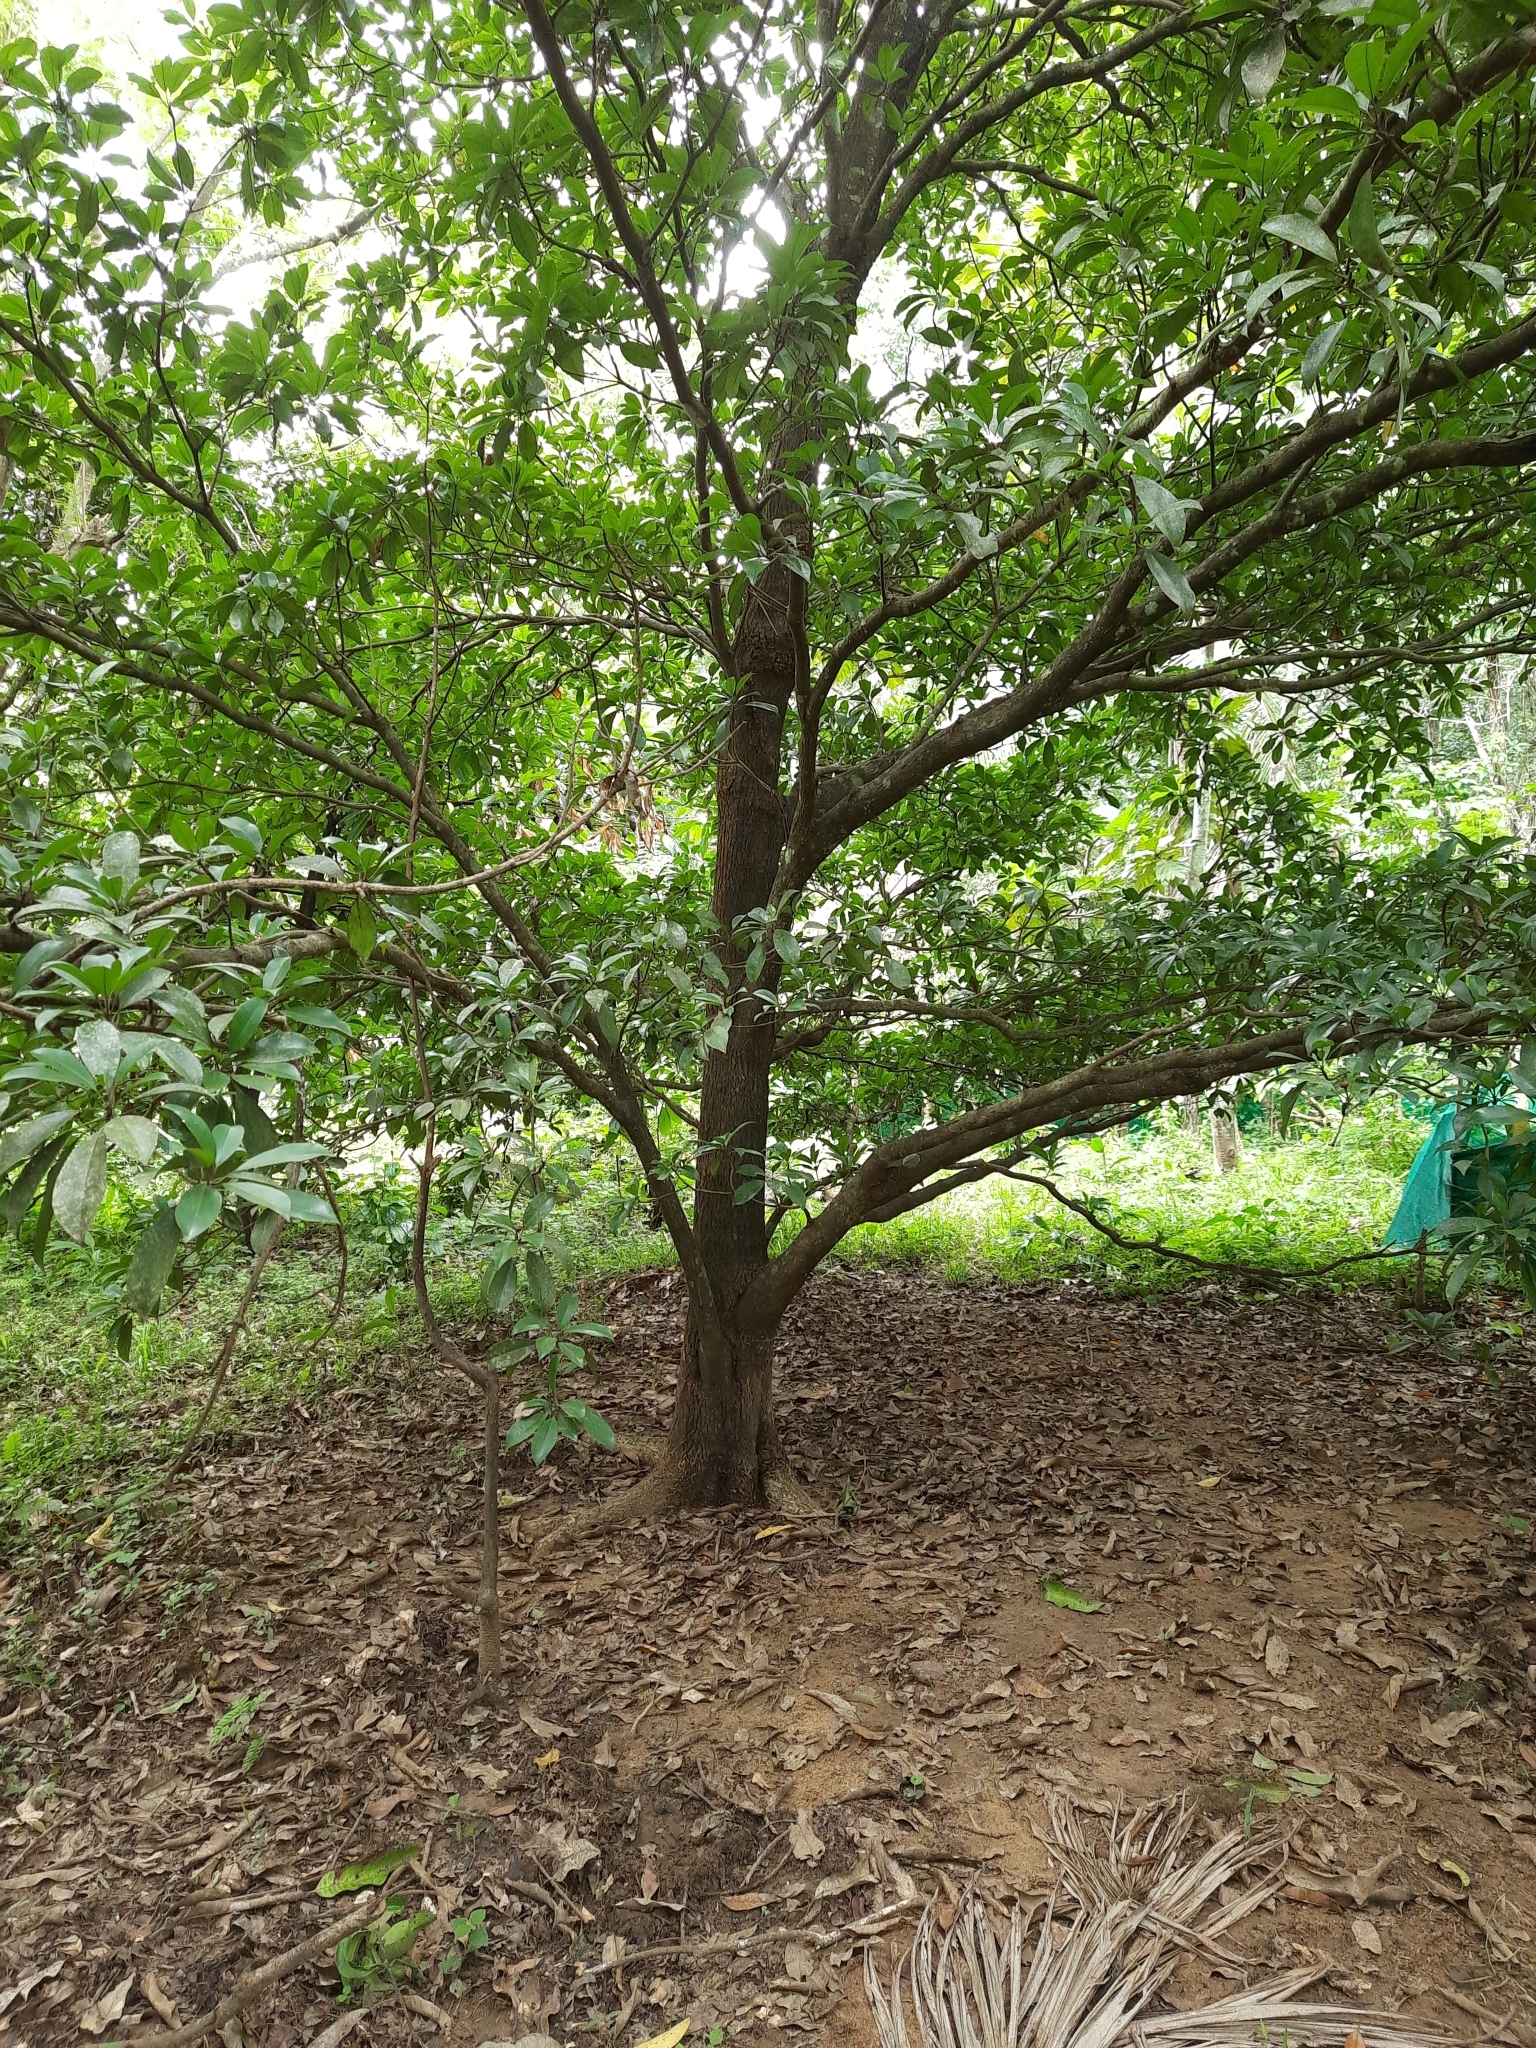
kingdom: Plantae
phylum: Tracheophyta
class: Magnoliopsida
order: Ericales
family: Sapotaceae
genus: Manilkara
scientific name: Manilkara zapota
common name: Sapodilla
